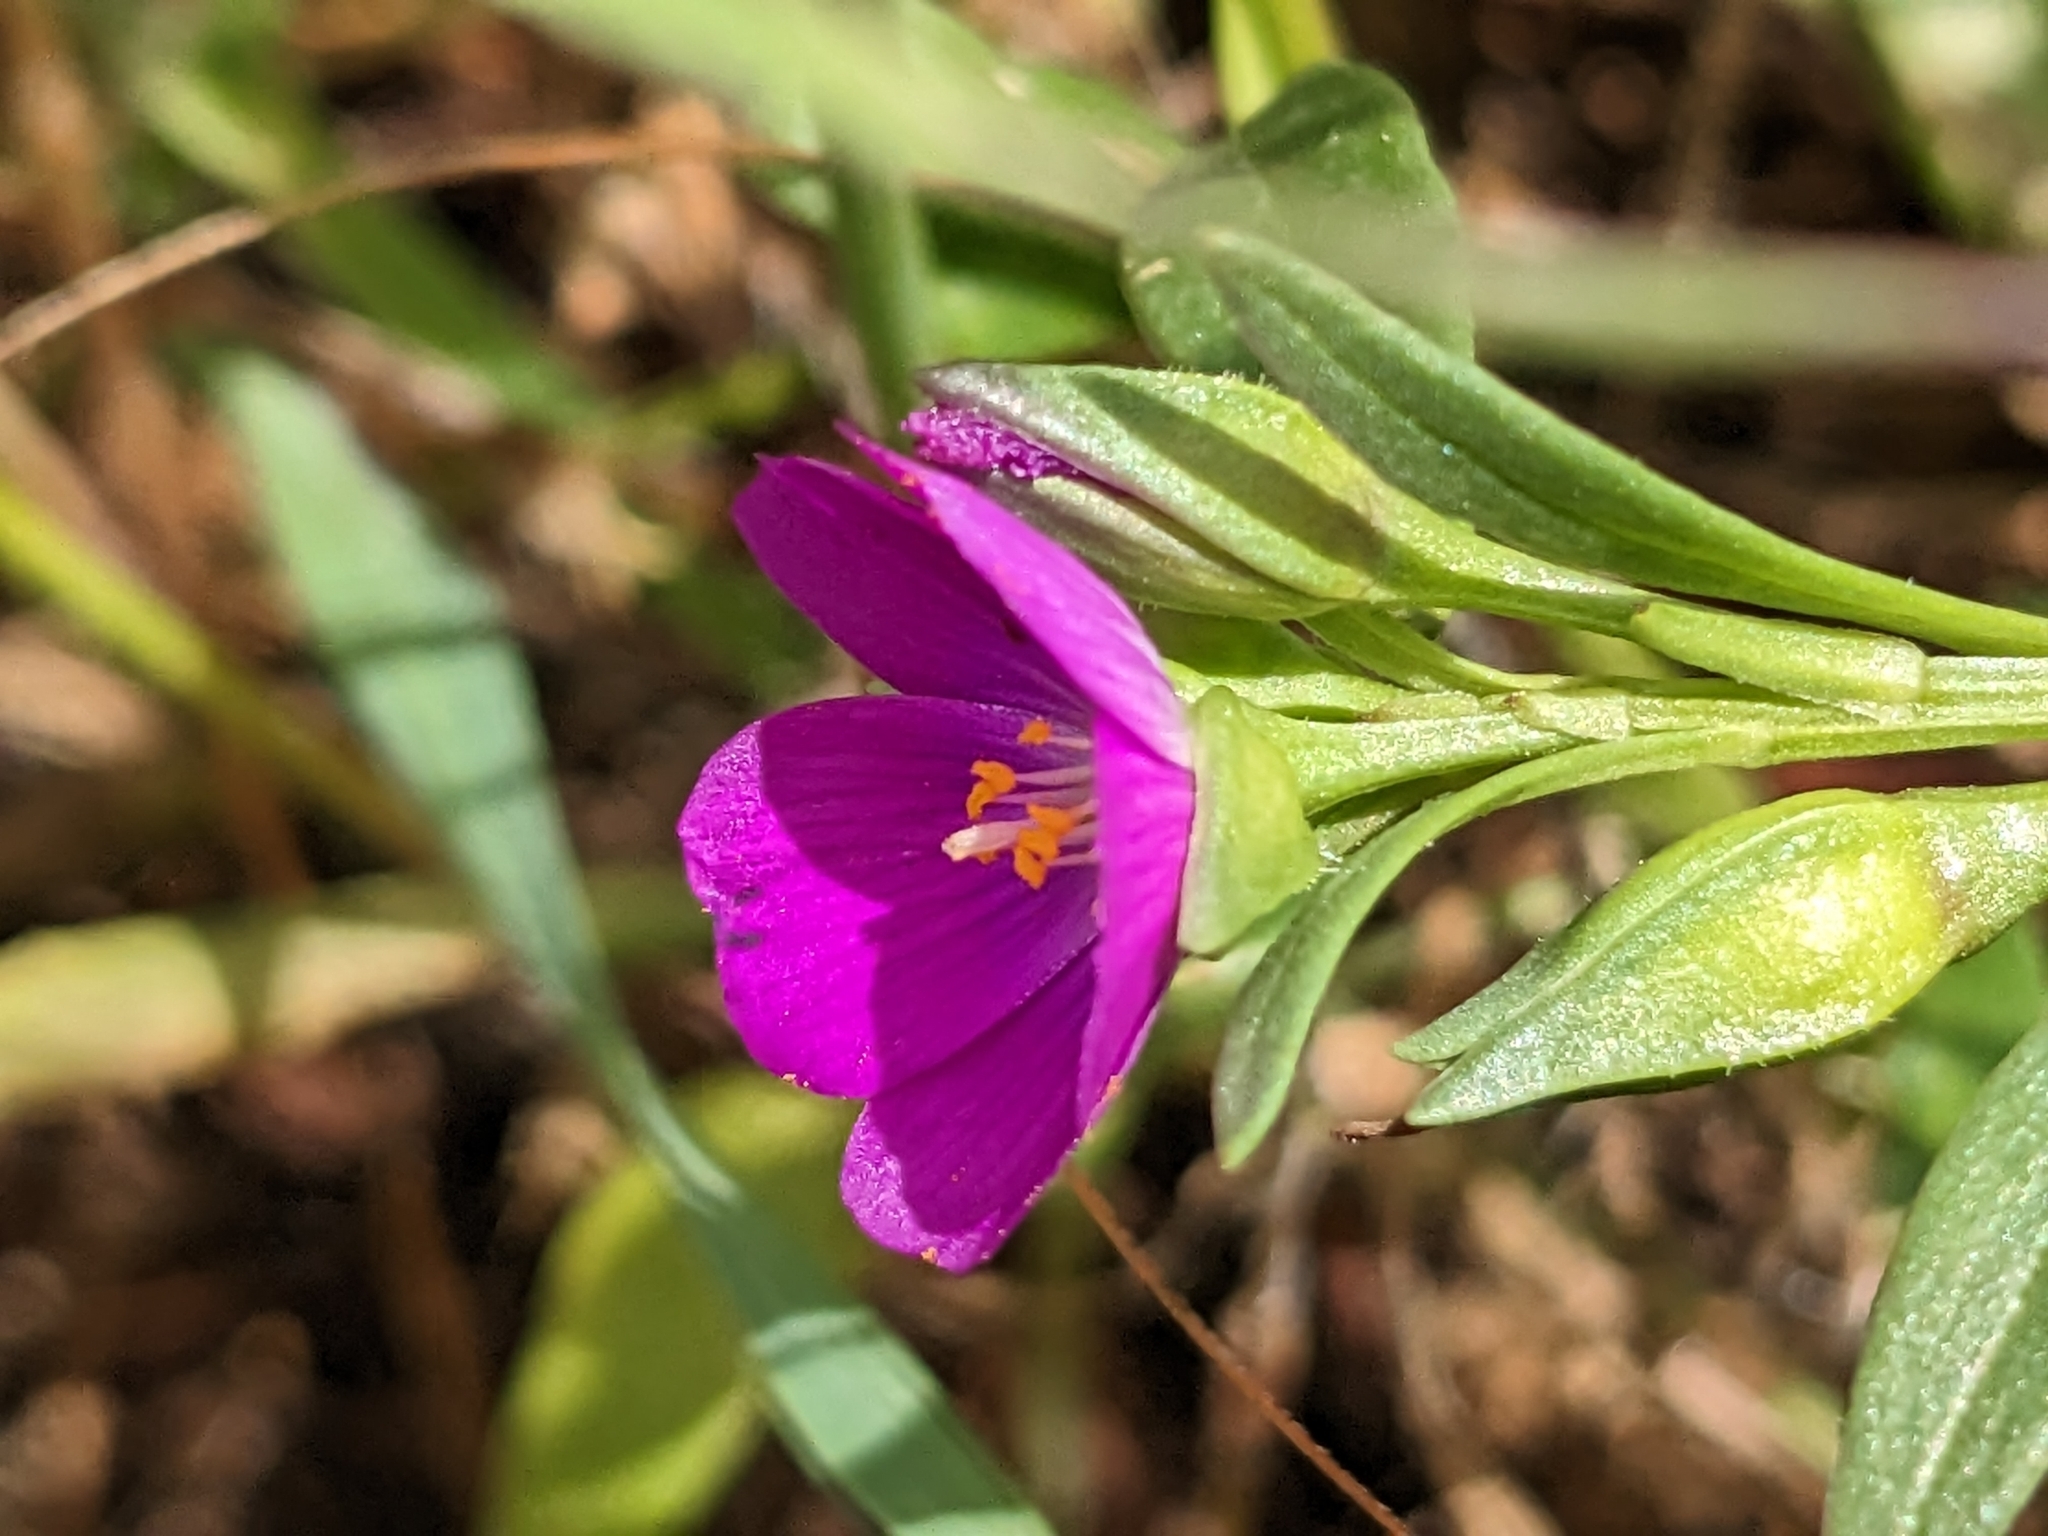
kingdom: Plantae
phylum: Tracheophyta
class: Magnoliopsida
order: Caryophyllales
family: Montiaceae
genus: Calandrinia
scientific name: Calandrinia menziesii
